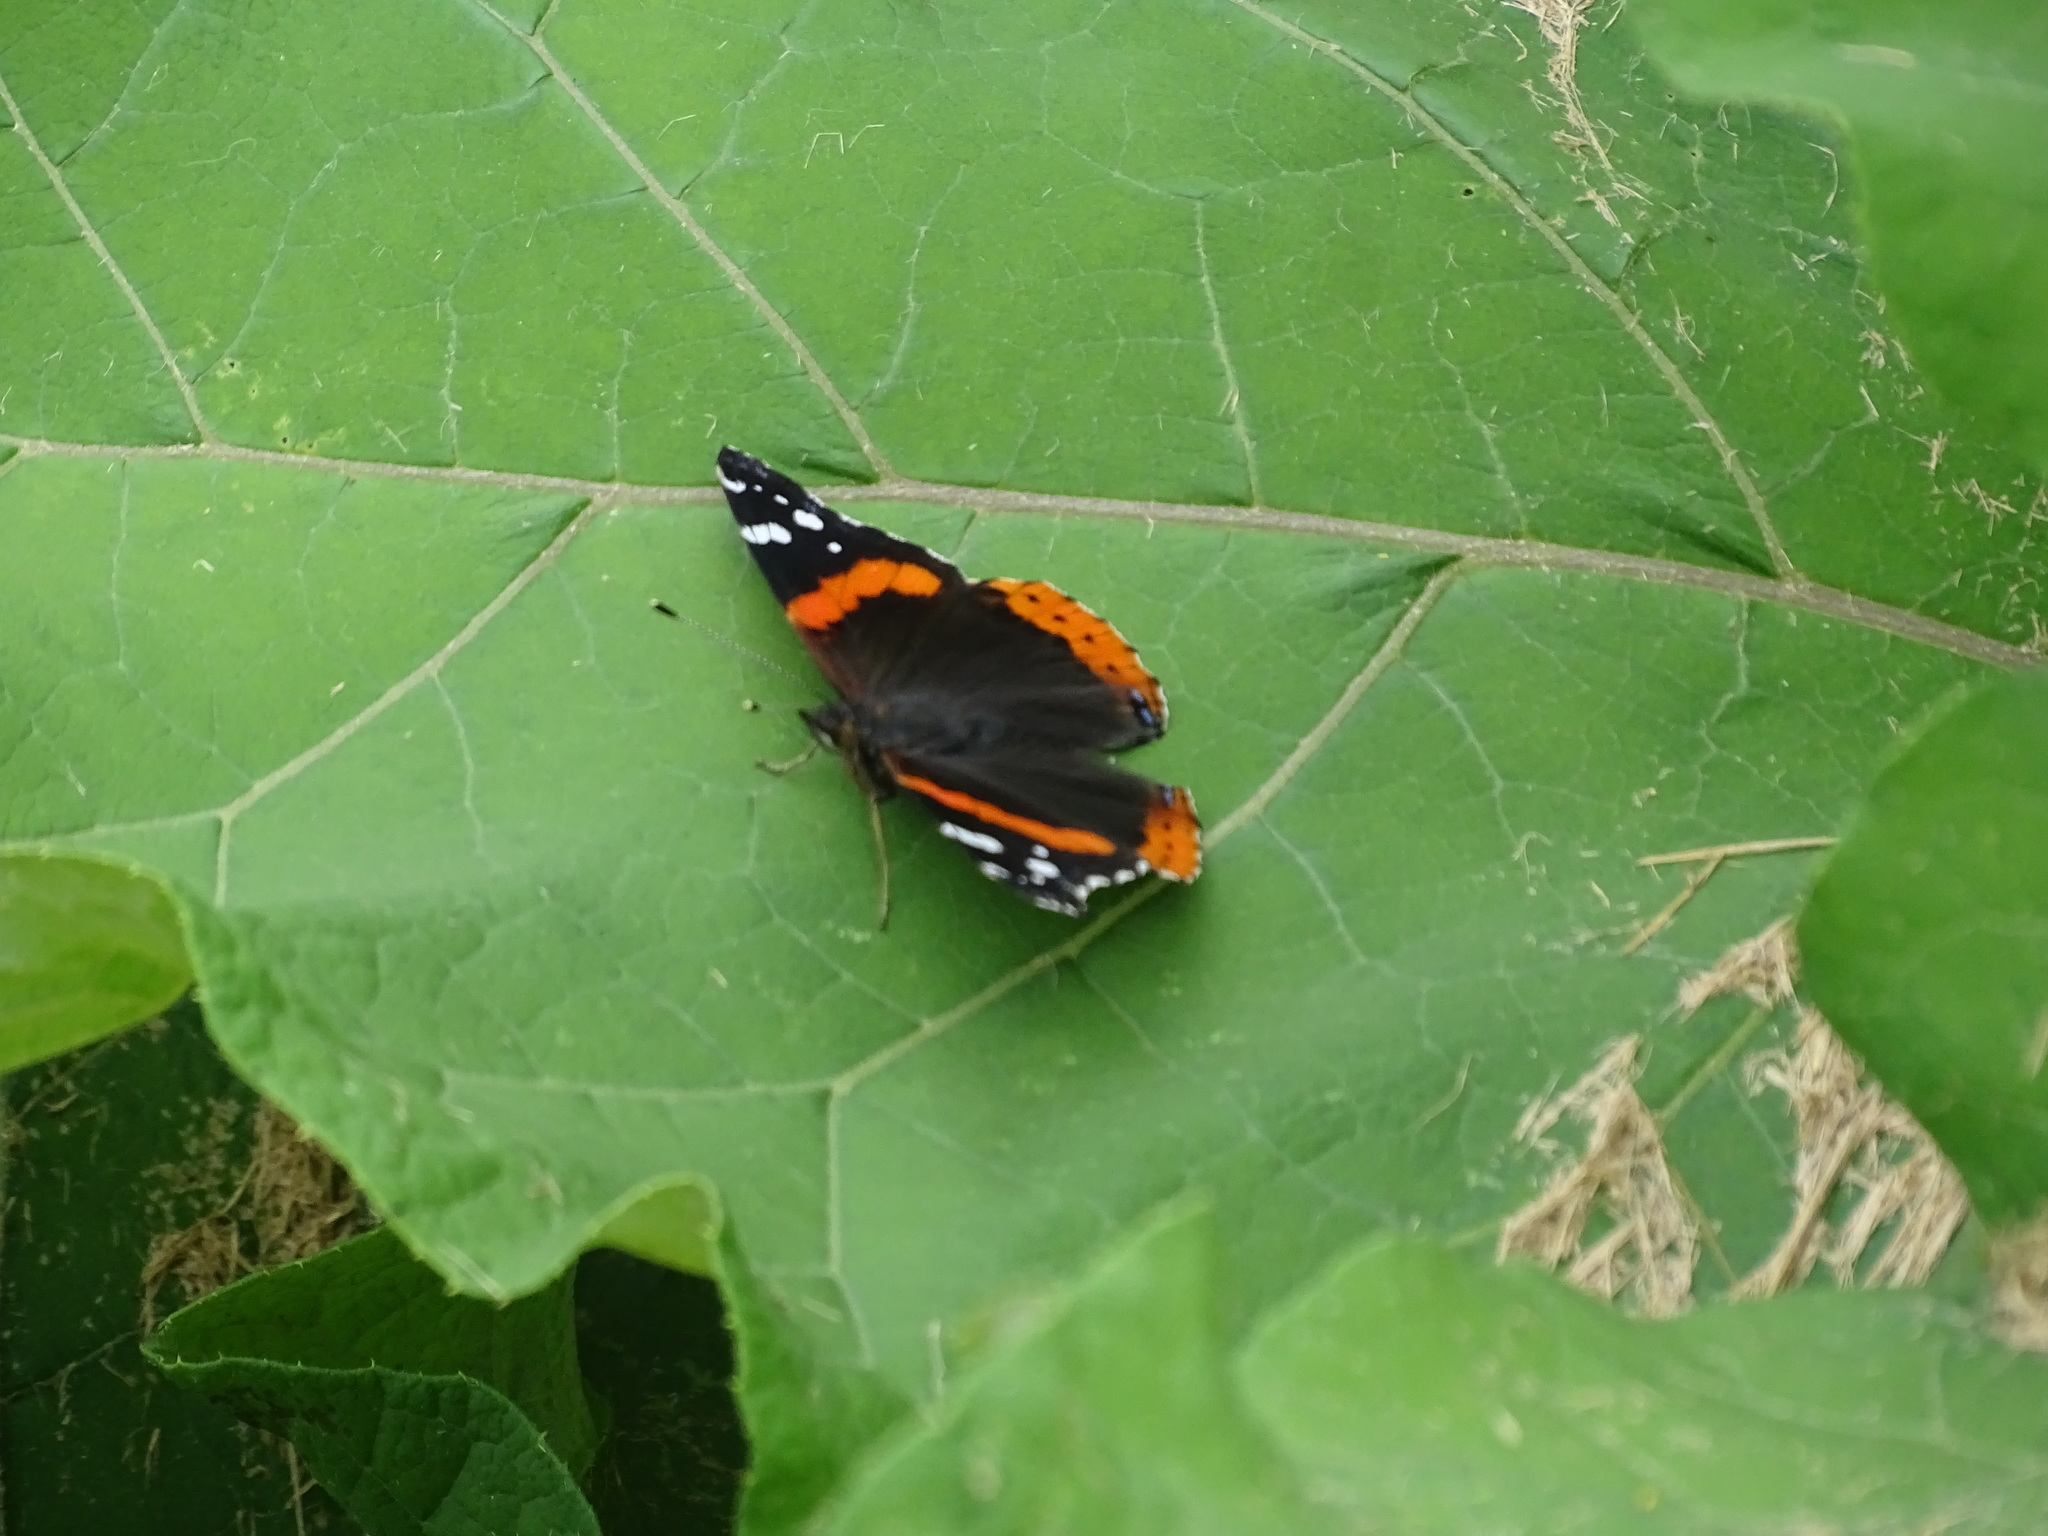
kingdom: Animalia
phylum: Arthropoda
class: Insecta
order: Lepidoptera
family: Nymphalidae
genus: Vanessa
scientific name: Vanessa atalanta
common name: Red admiral
